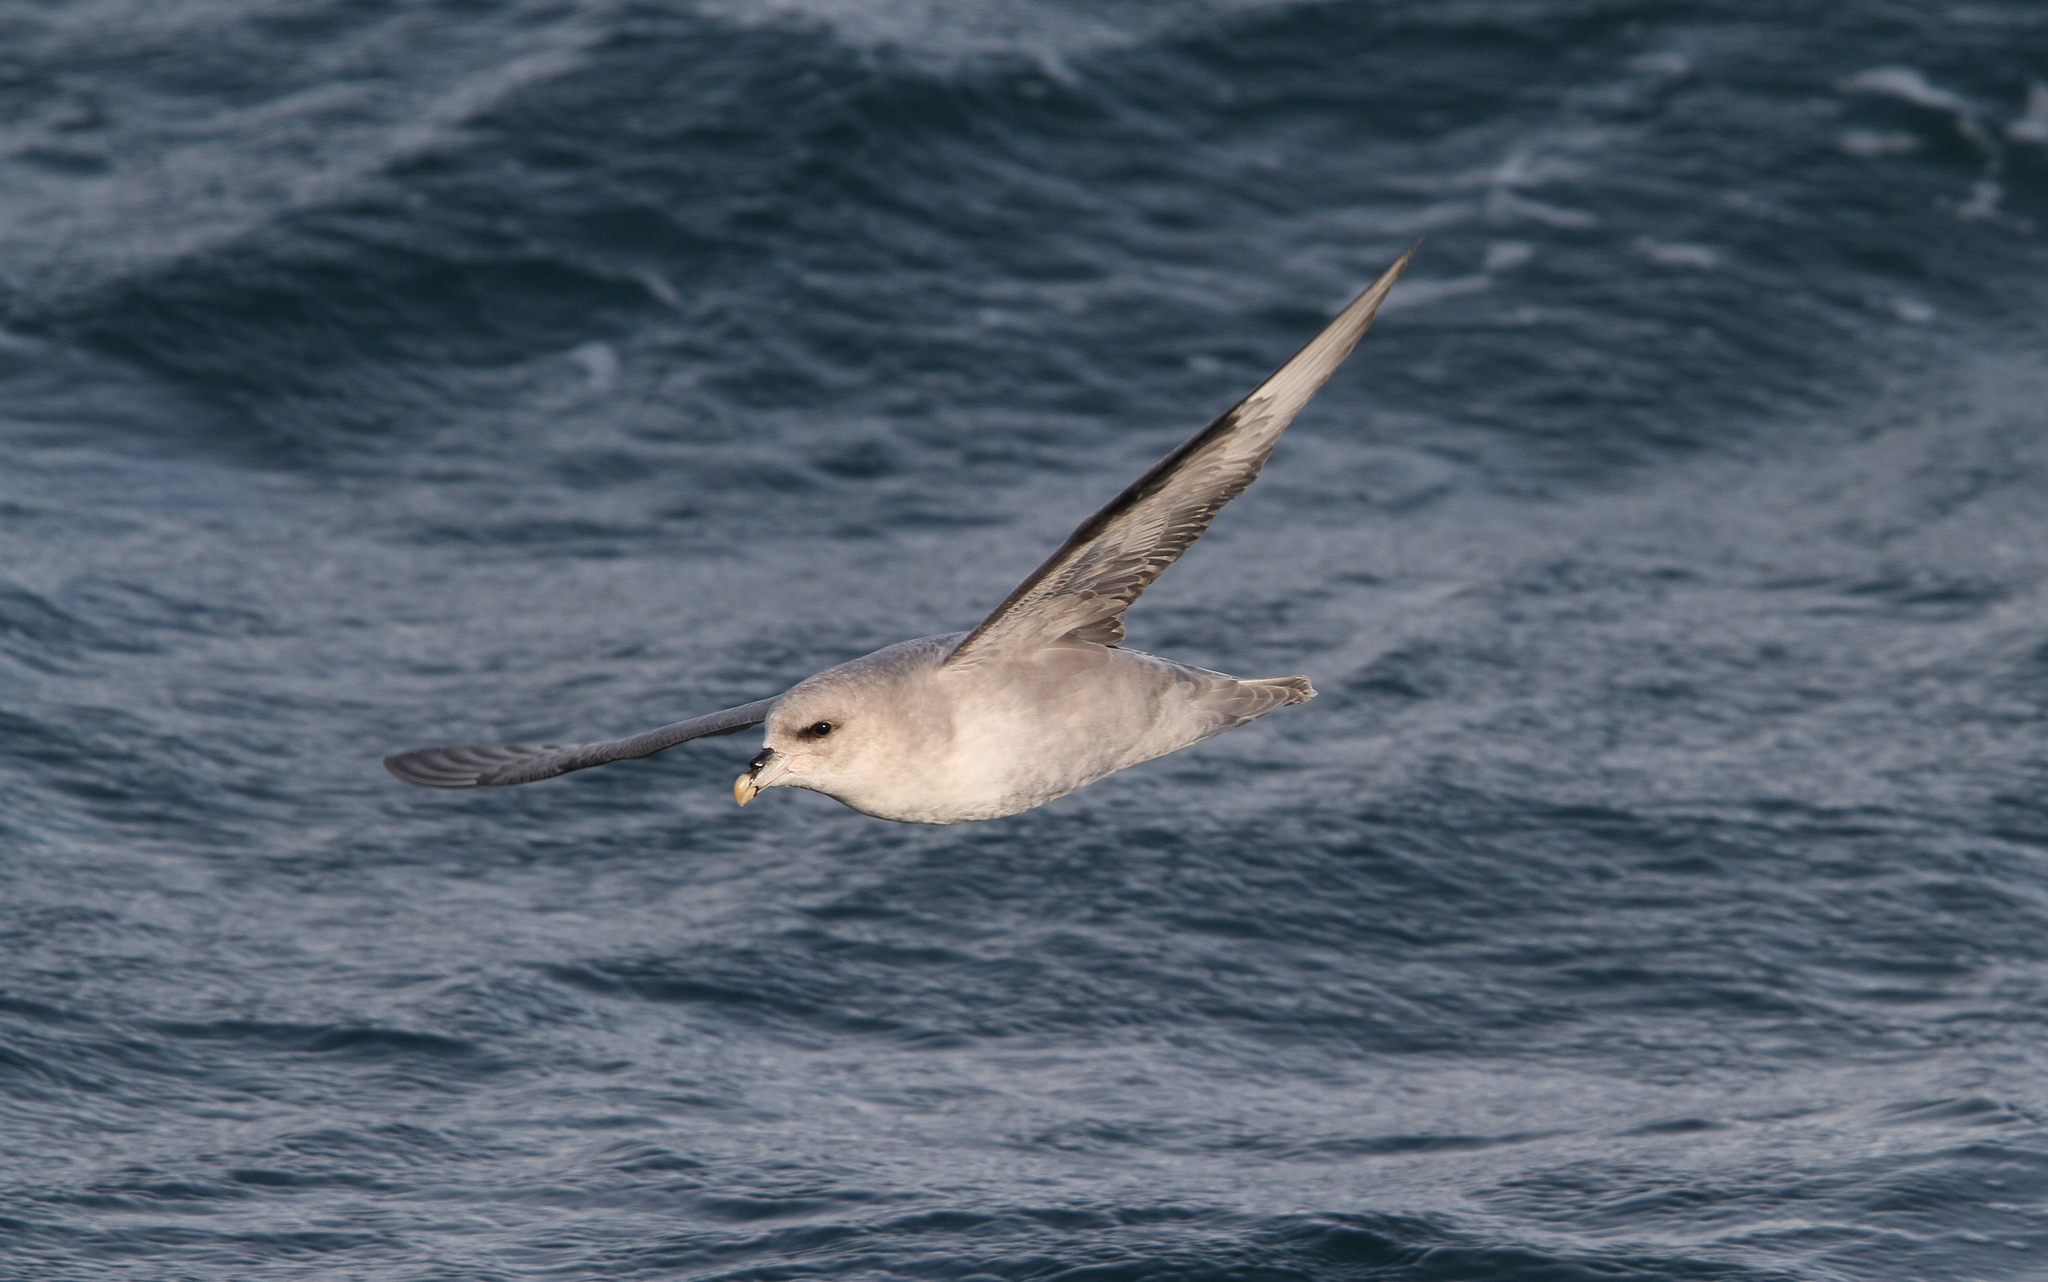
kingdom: Animalia
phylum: Chordata
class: Aves
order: Procellariiformes
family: Procellariidae
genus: Fulmarus
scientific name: Fulmarus glacialis
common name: Northern fulmar
